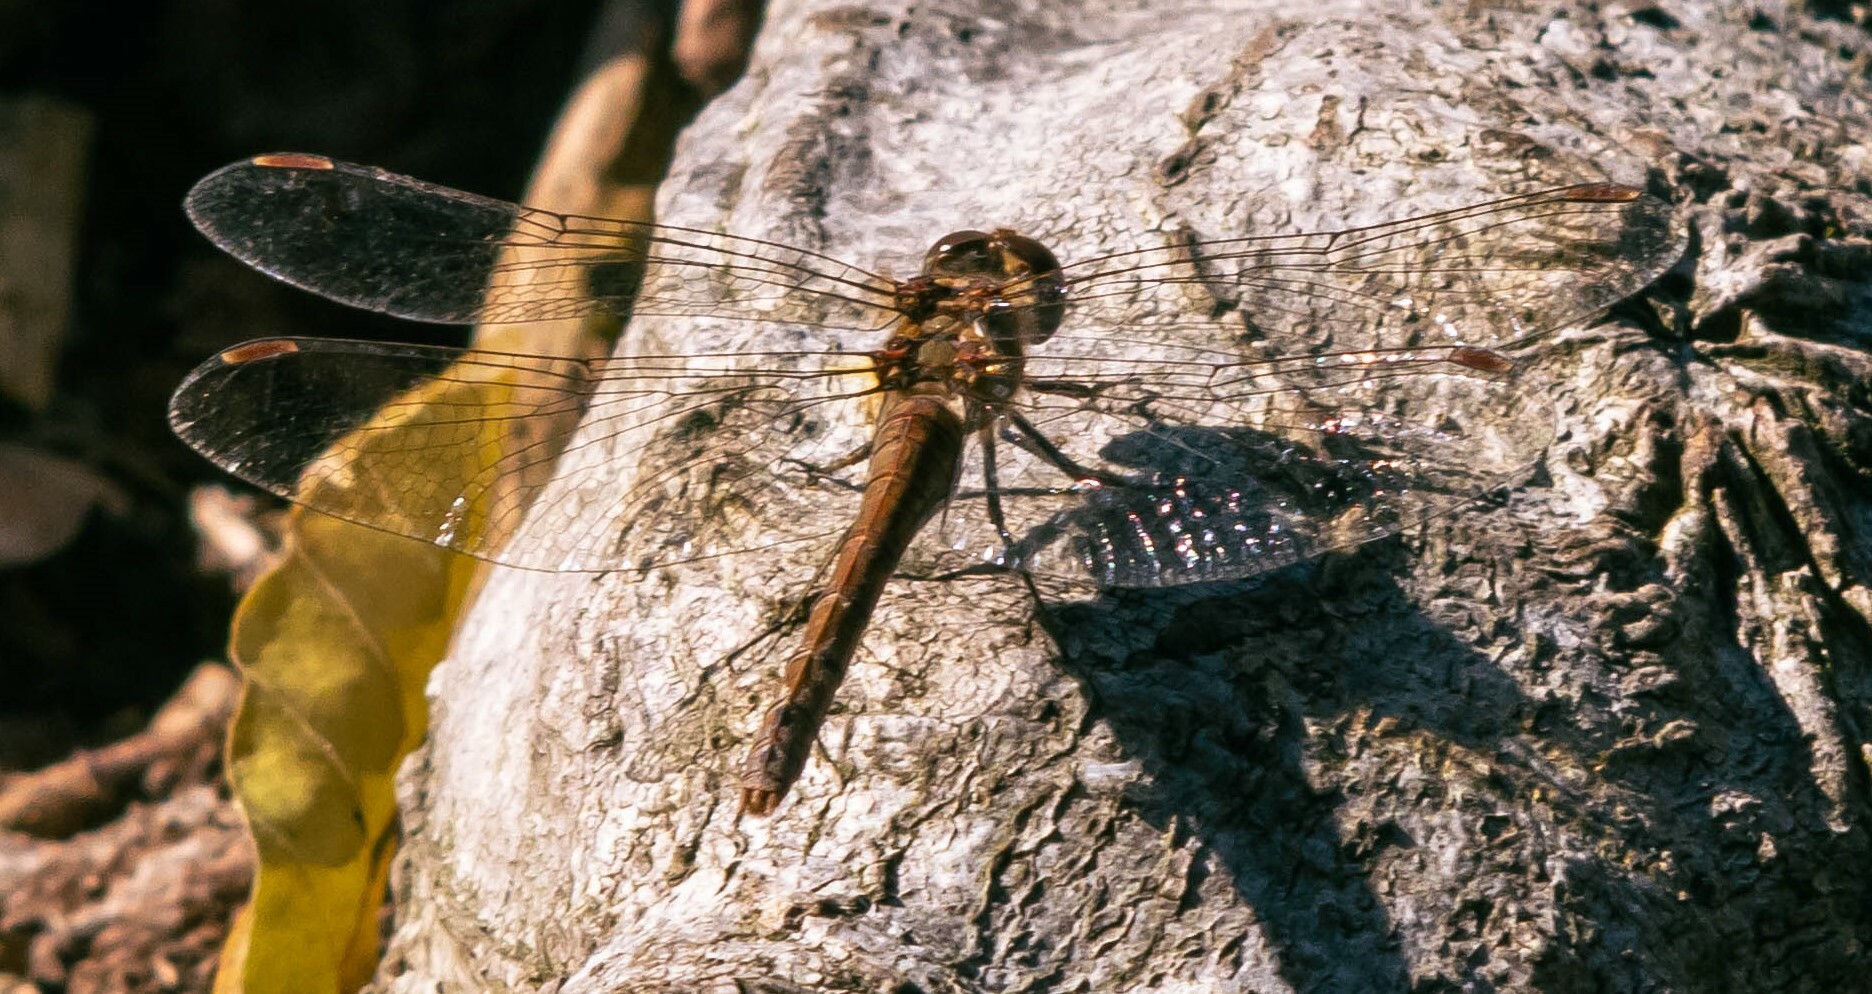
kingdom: Animalia
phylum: Arthropoda
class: Insecta
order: Odonata
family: Libellulidae
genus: Sympetrum
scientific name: Sympetrum sanguineum
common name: Ruddy darter
